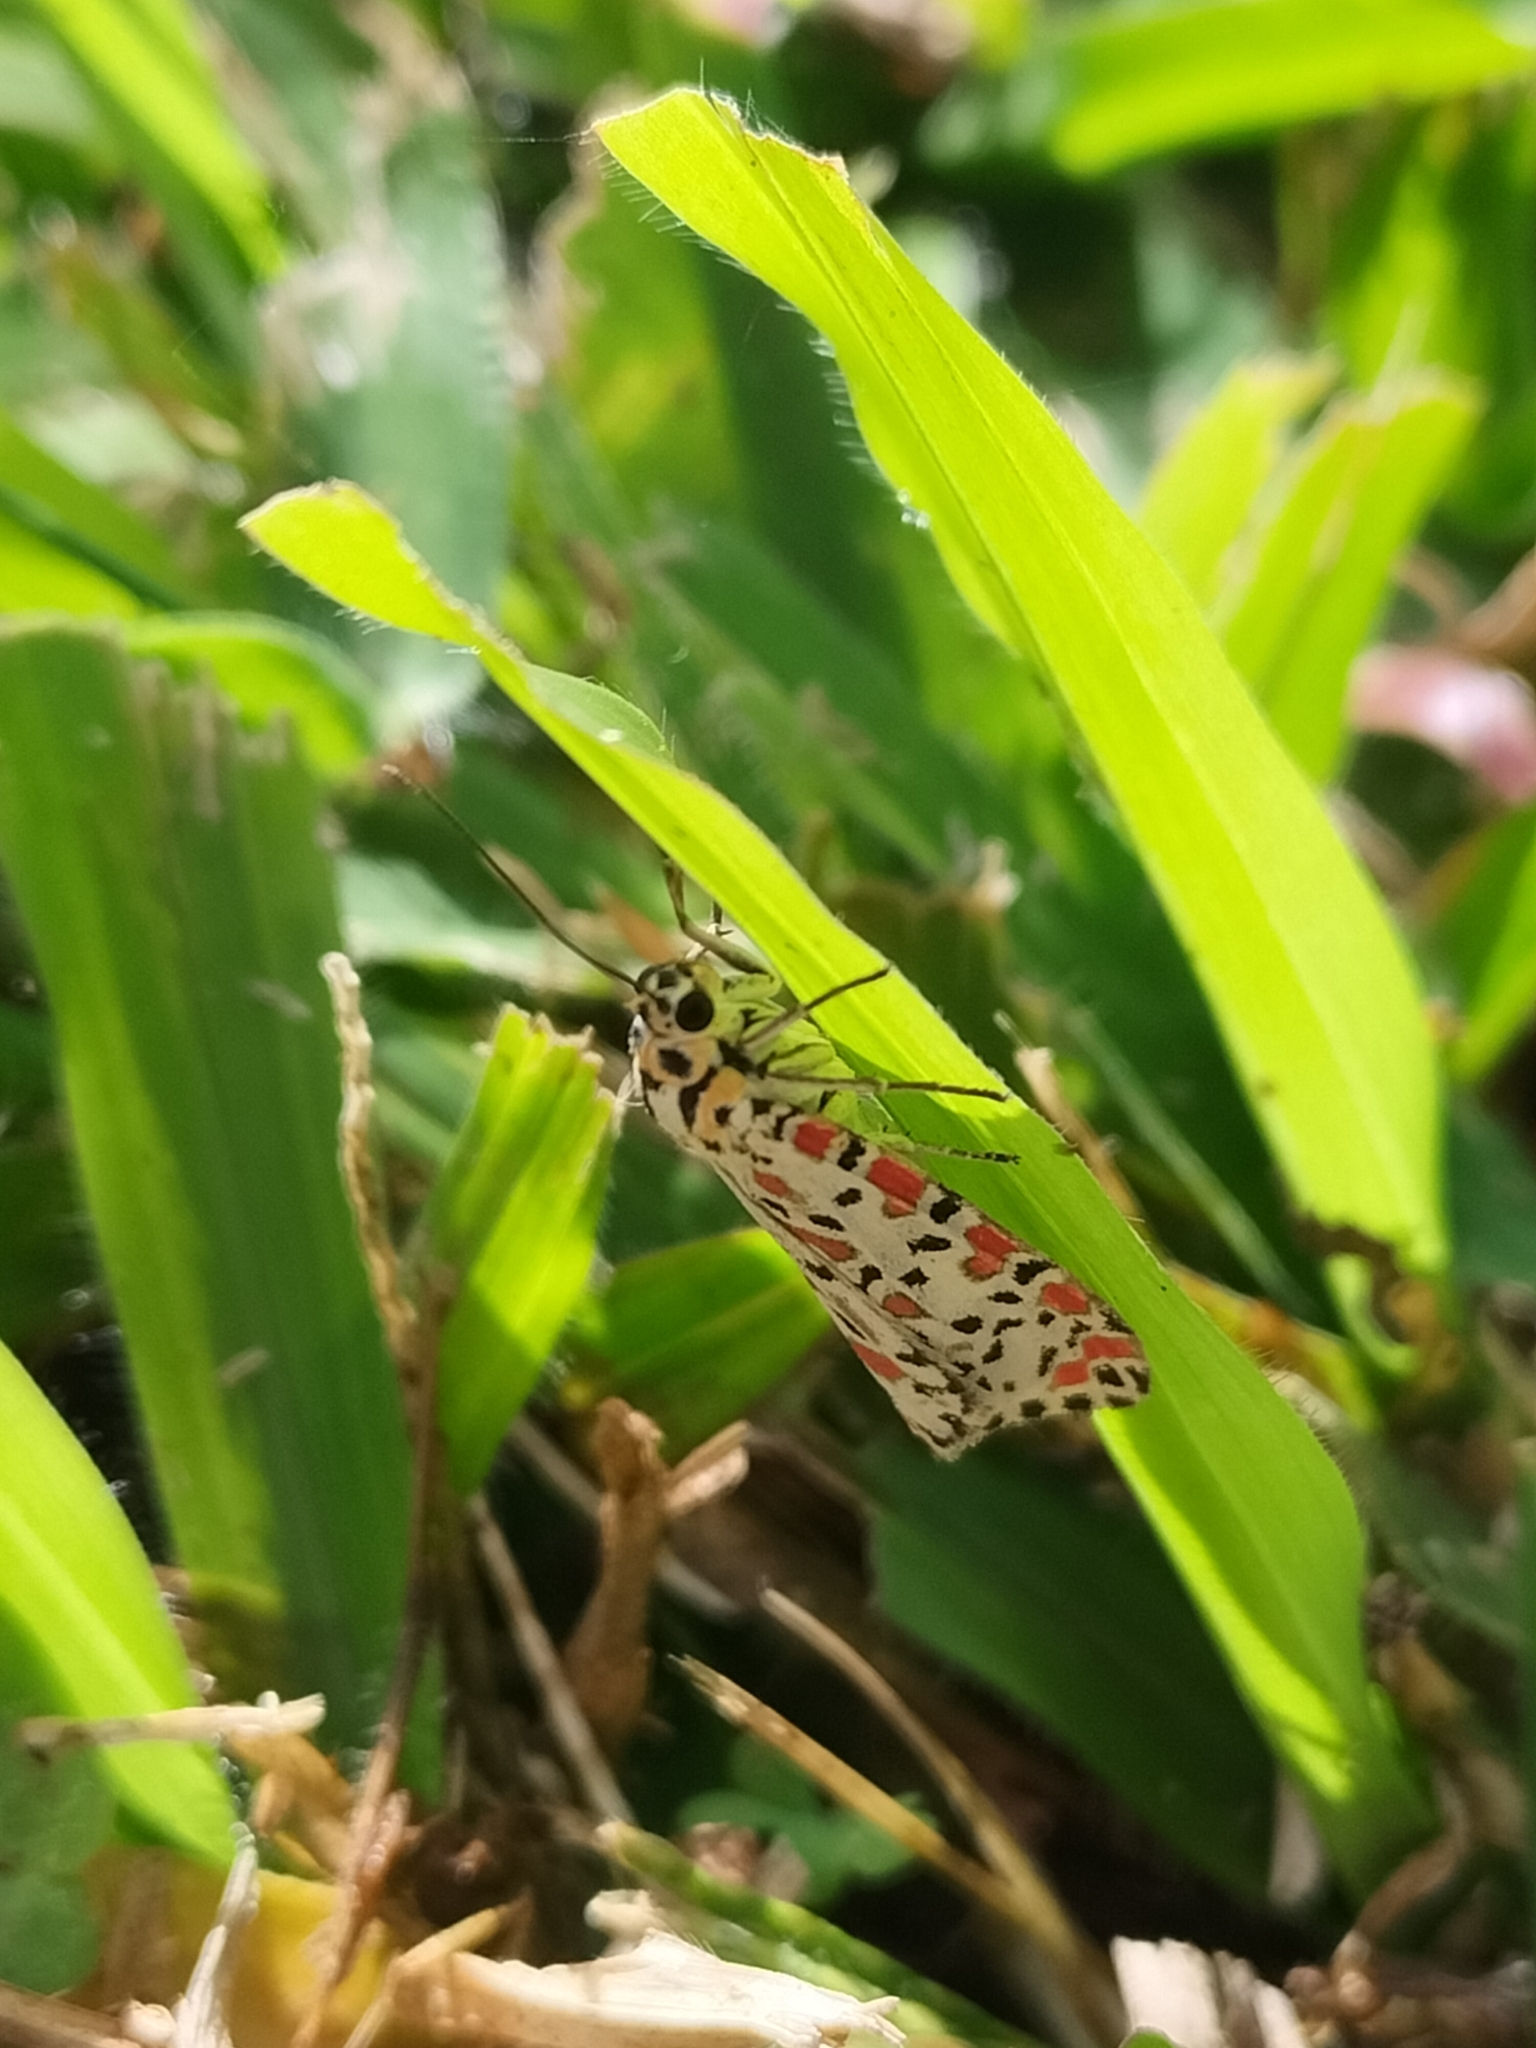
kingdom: Animalia
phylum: Arthropoda
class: Insecta
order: Lepidoptera
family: Erebidae
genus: Utetheisa
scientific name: Utetheisa lotrix
